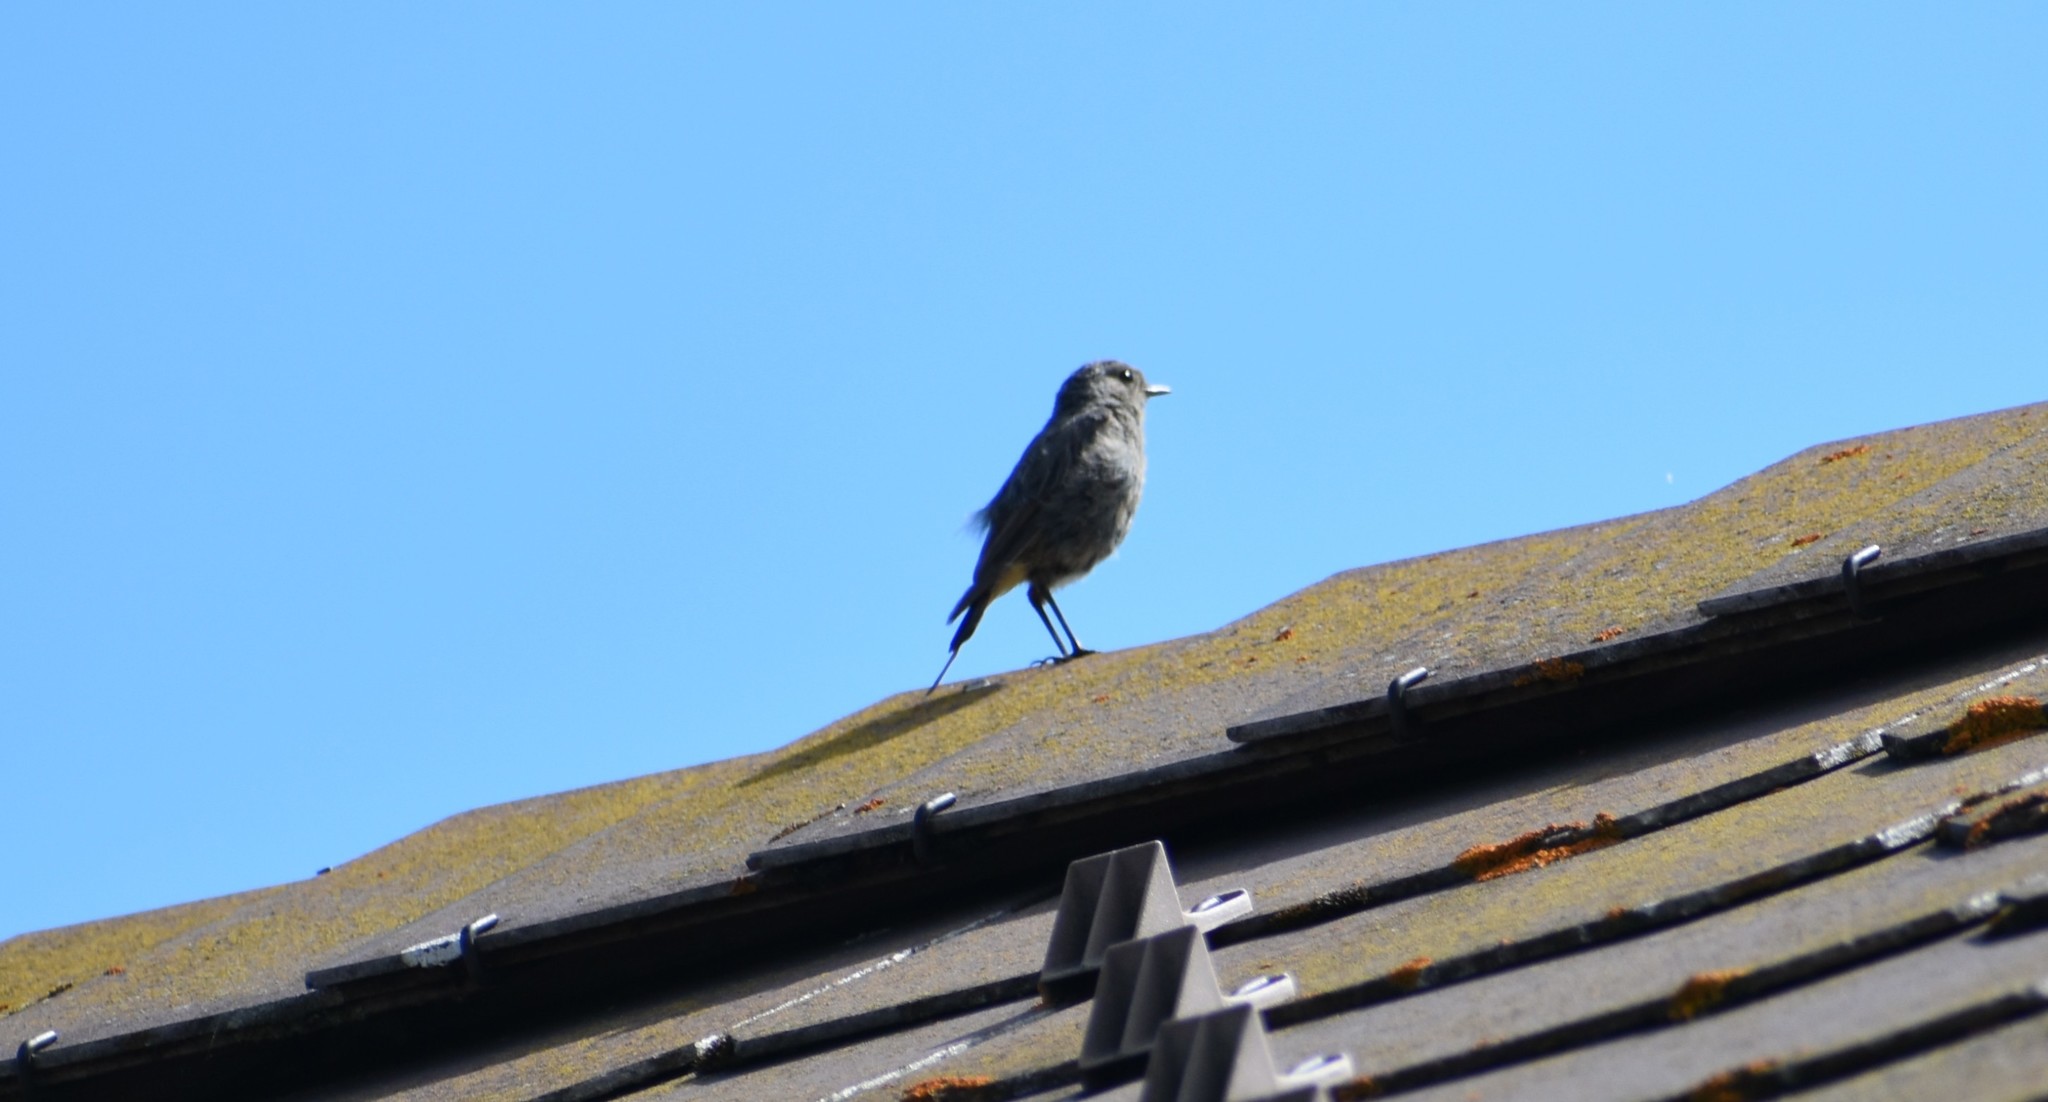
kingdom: Animalia
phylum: Chordata
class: Aves
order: Passeriformes
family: Muscicapidae
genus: Phoenicurus
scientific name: Phoenicurus ochruros
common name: Black redstart
